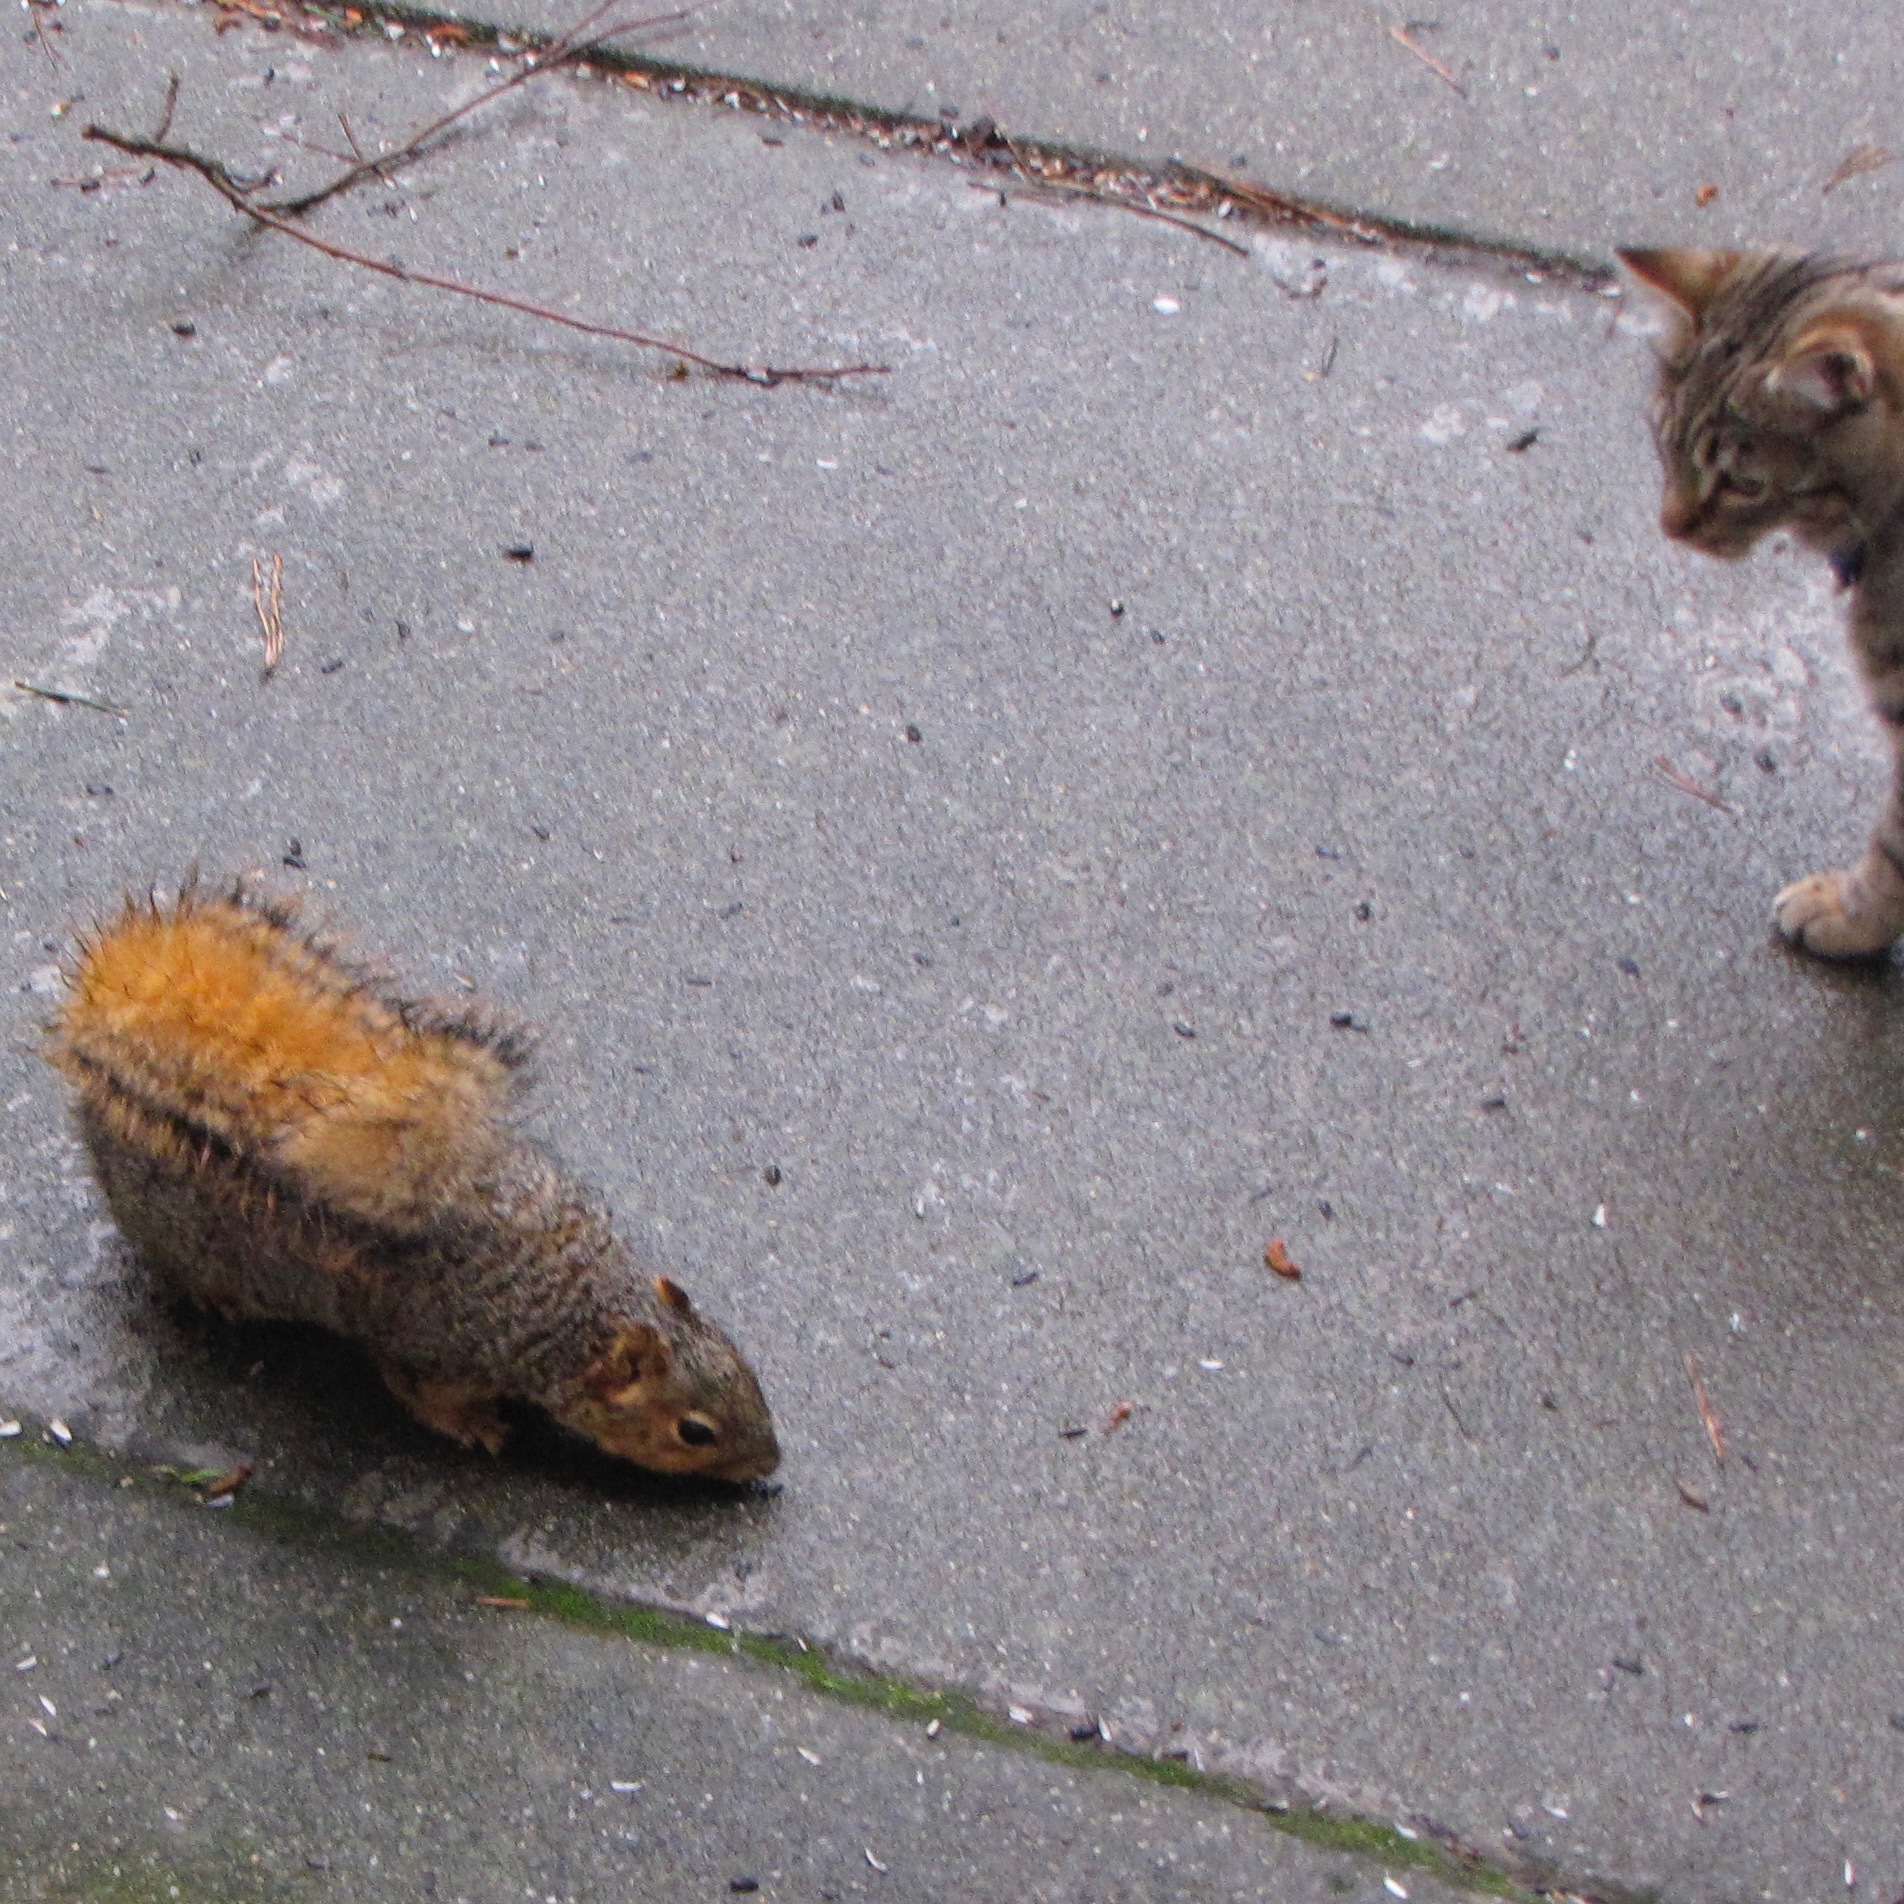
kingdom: Animalia
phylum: Chordata
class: Mammalia
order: Rodentia
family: Sciuridae
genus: Sciurus
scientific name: Sciurus niger
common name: Fox squirrel
